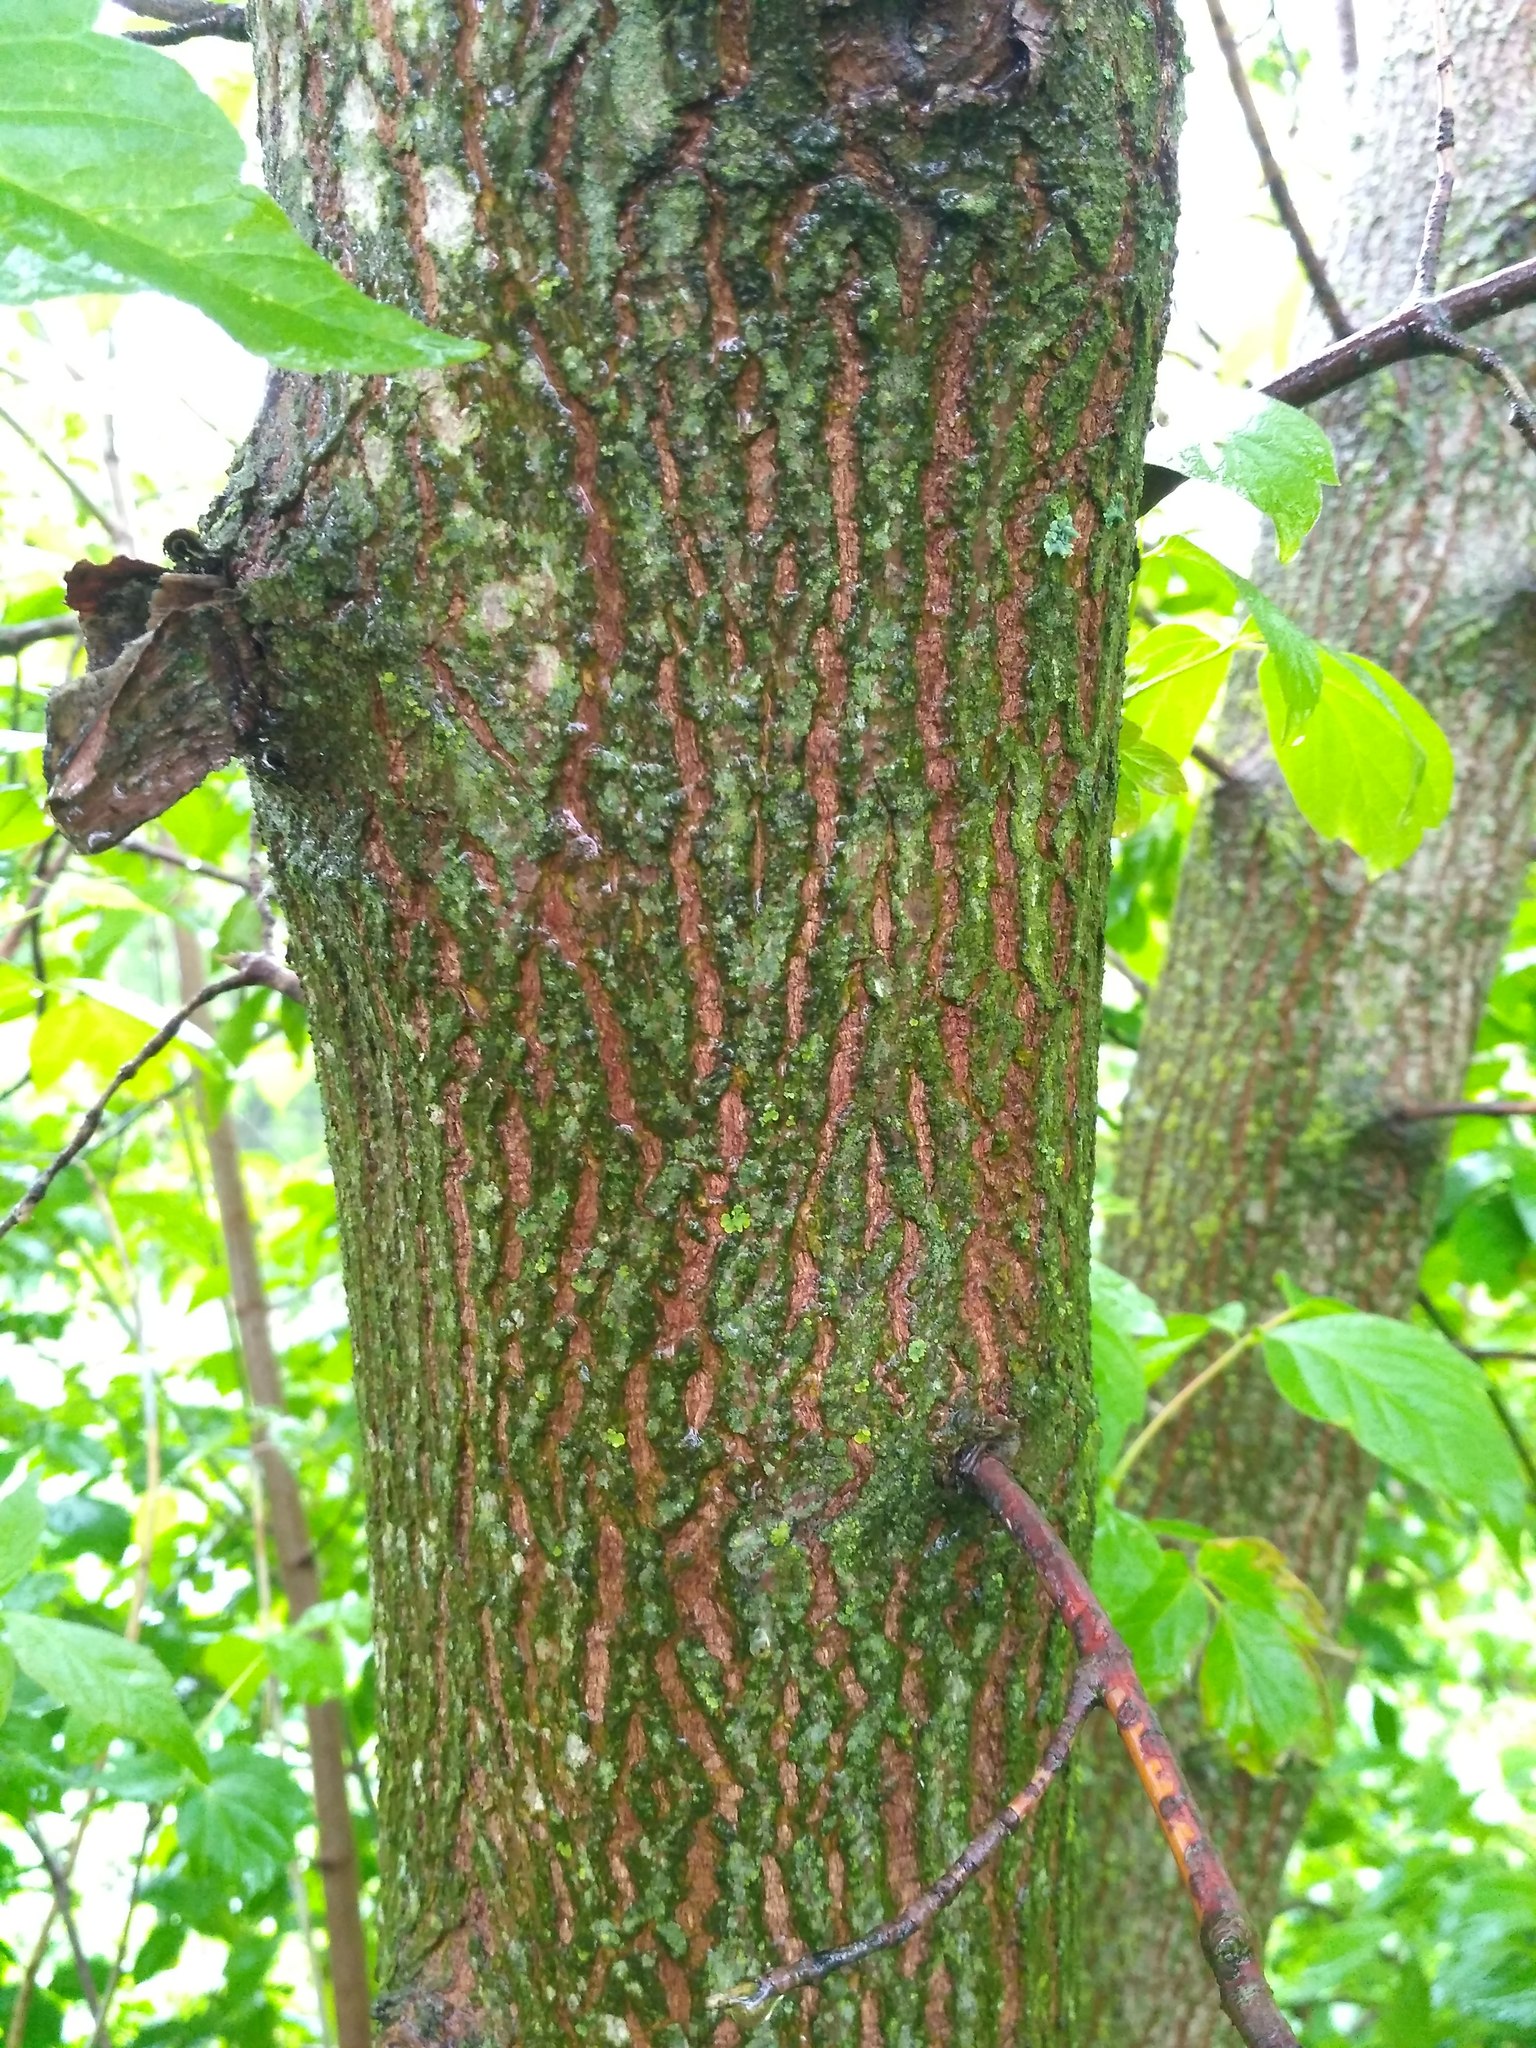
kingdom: Plantae
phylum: Tracheophyta
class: Magnoliopsida
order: Sapindales
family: Sapindaceae
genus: Acer
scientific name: Acer negundo
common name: Ashleaf maple
